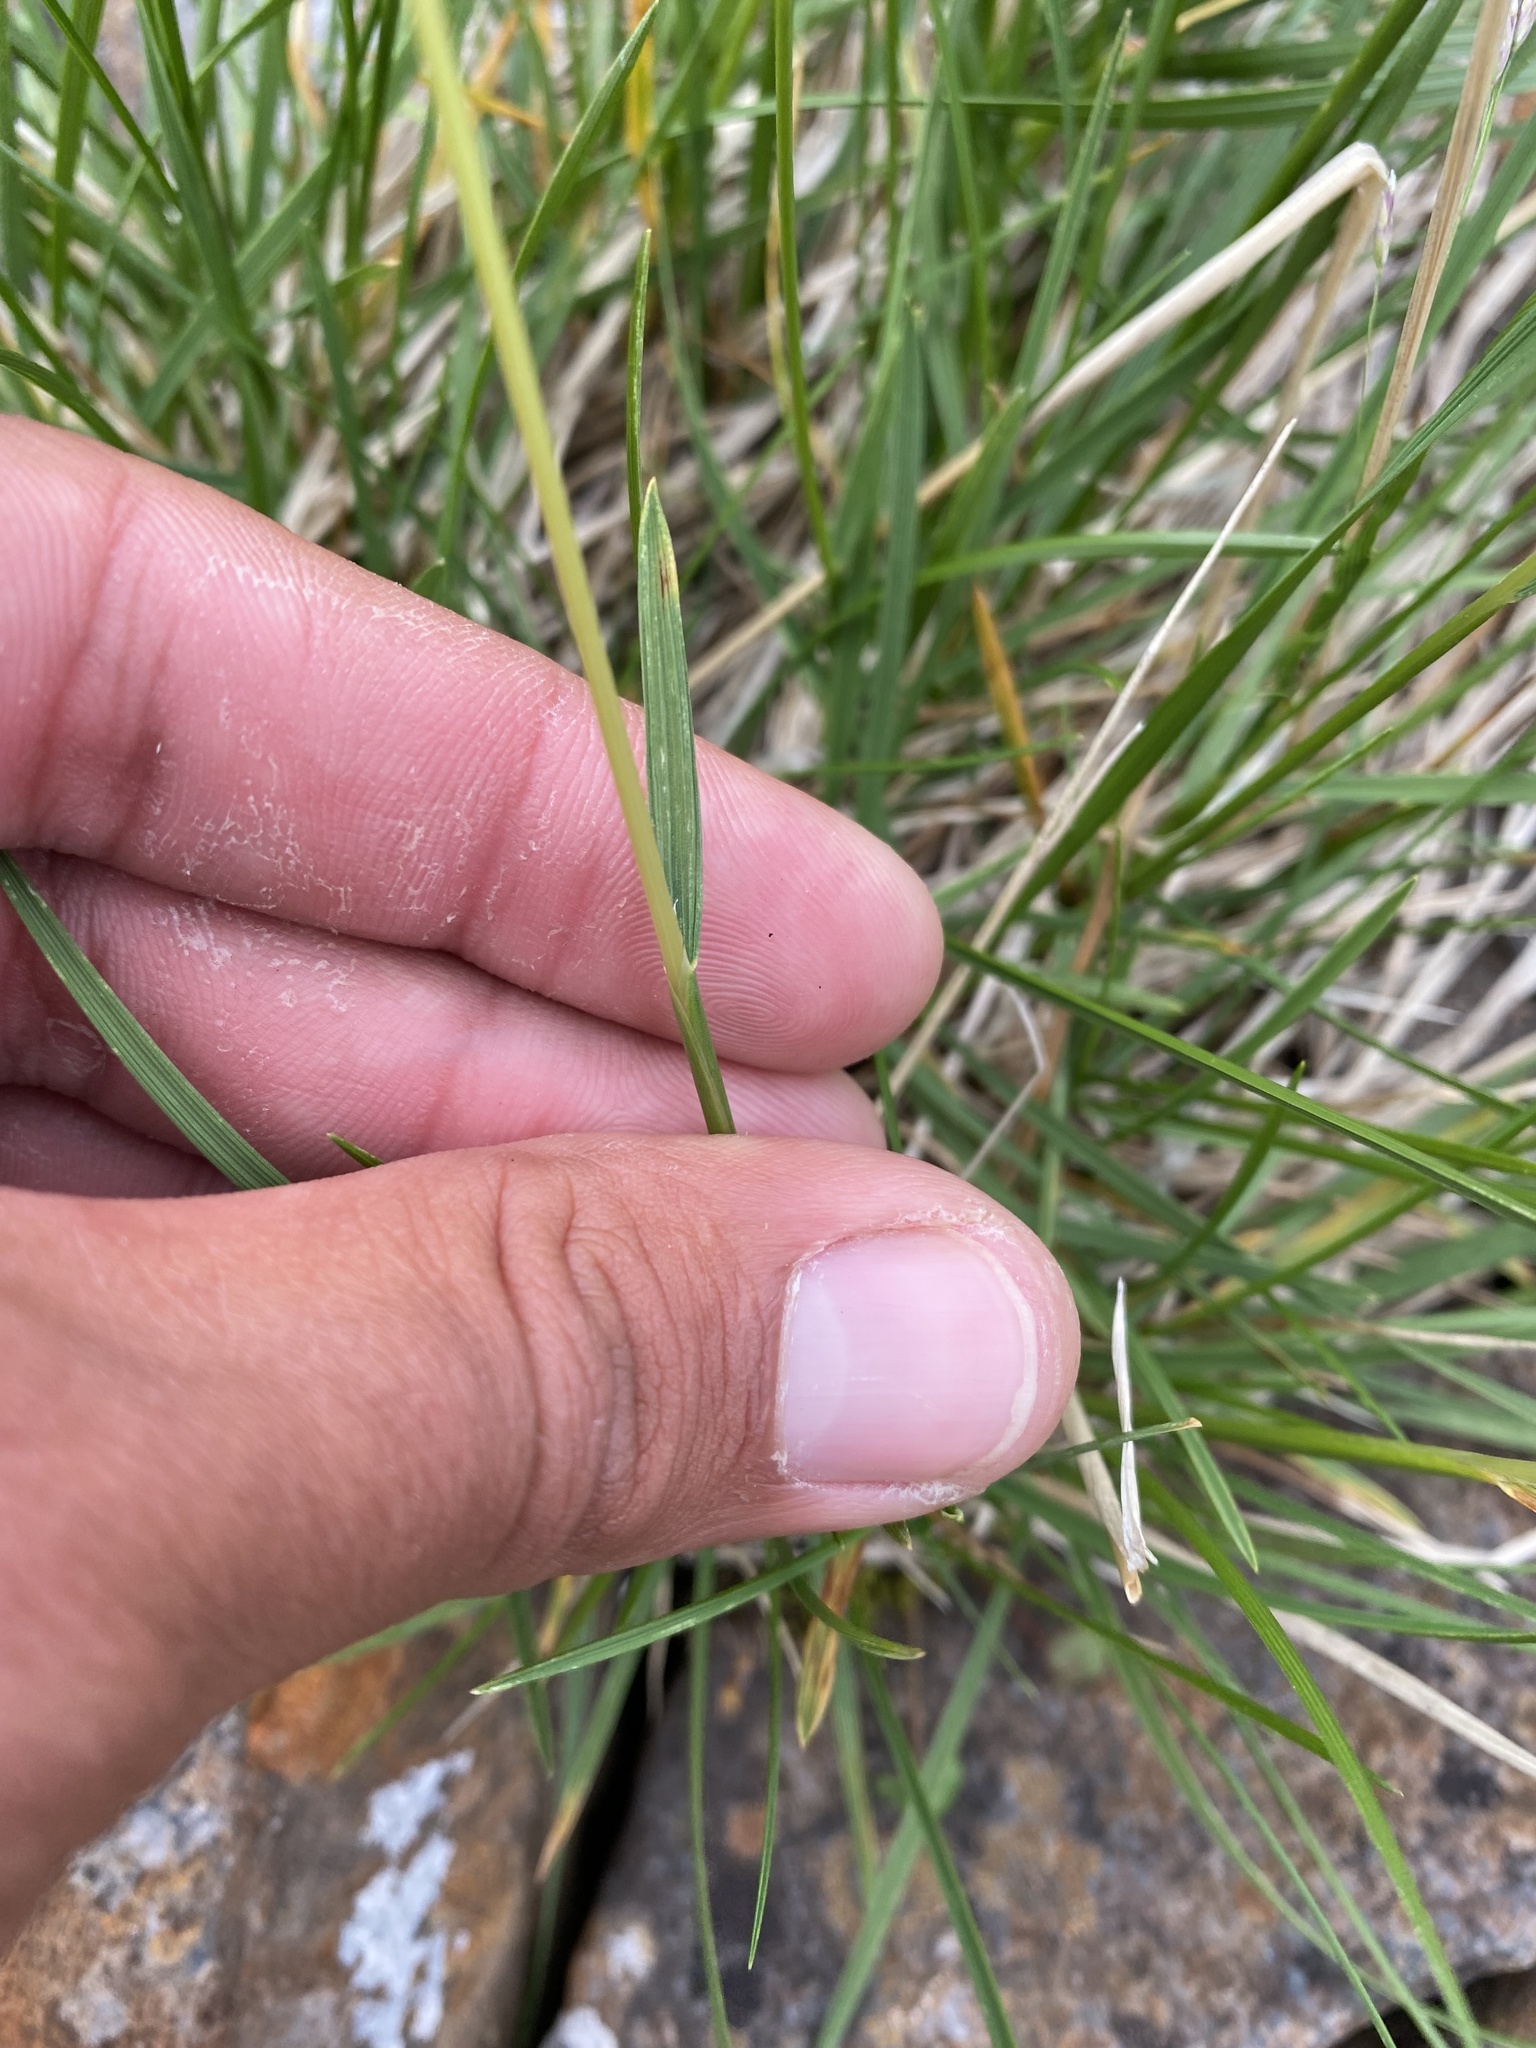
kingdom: Plantae
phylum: Tracheophyta
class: Liliopsida
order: Poales
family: Poaceae
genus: Deschampsia
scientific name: Deschampsia cespitosa
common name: Tufted hair-grass
